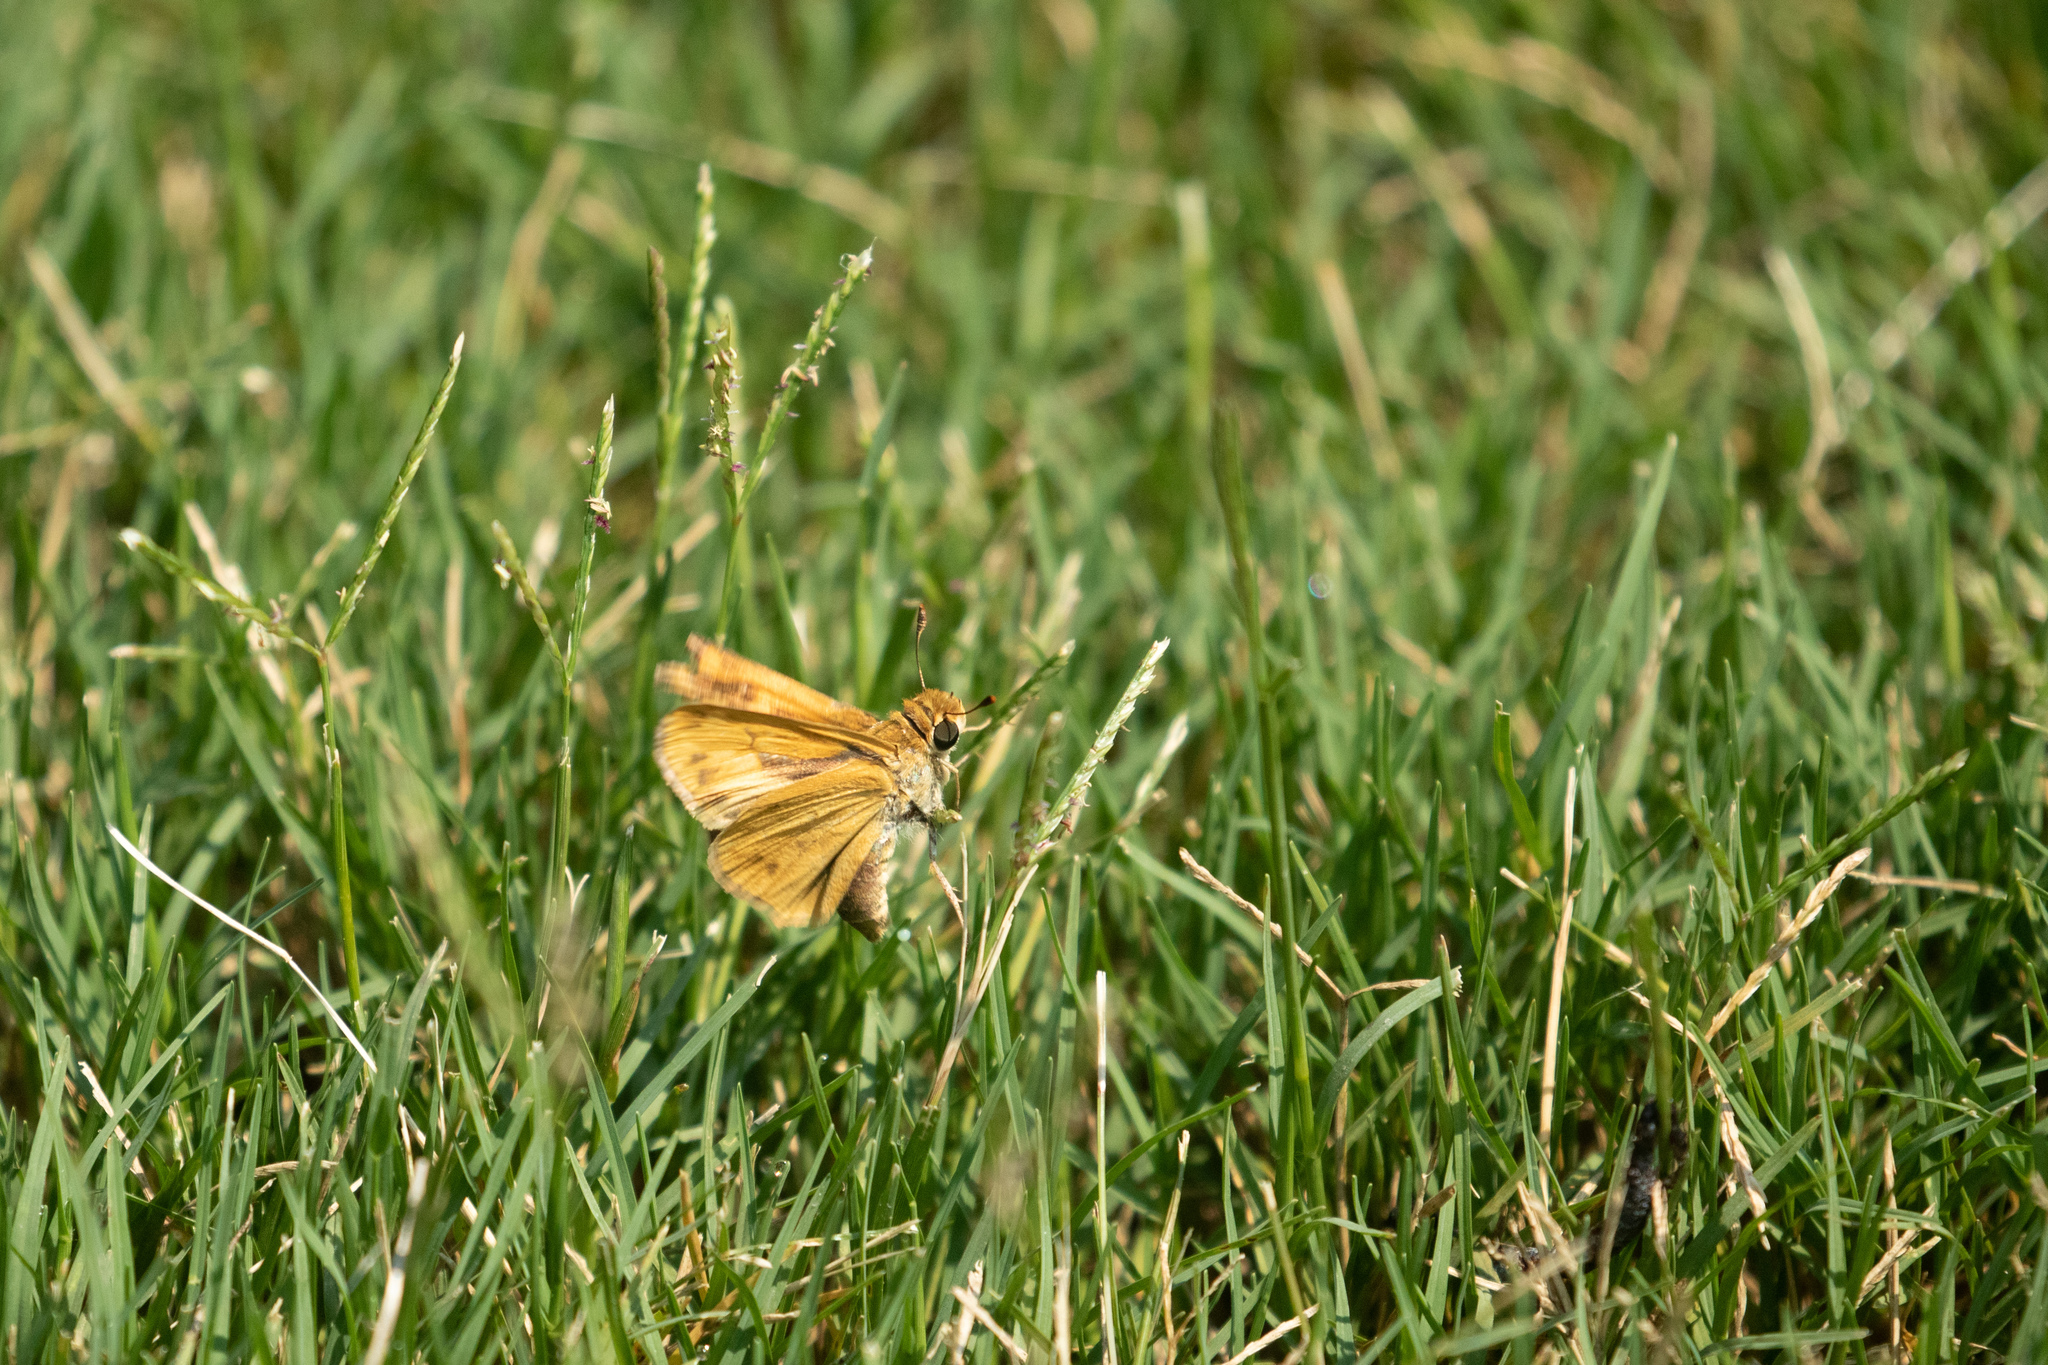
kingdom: Animalia
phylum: Arthropoda
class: Insecta
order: Lepidoptera
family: Hesperiidae
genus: Hylephila
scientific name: Hylephila phyleus
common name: Fiery skipper
